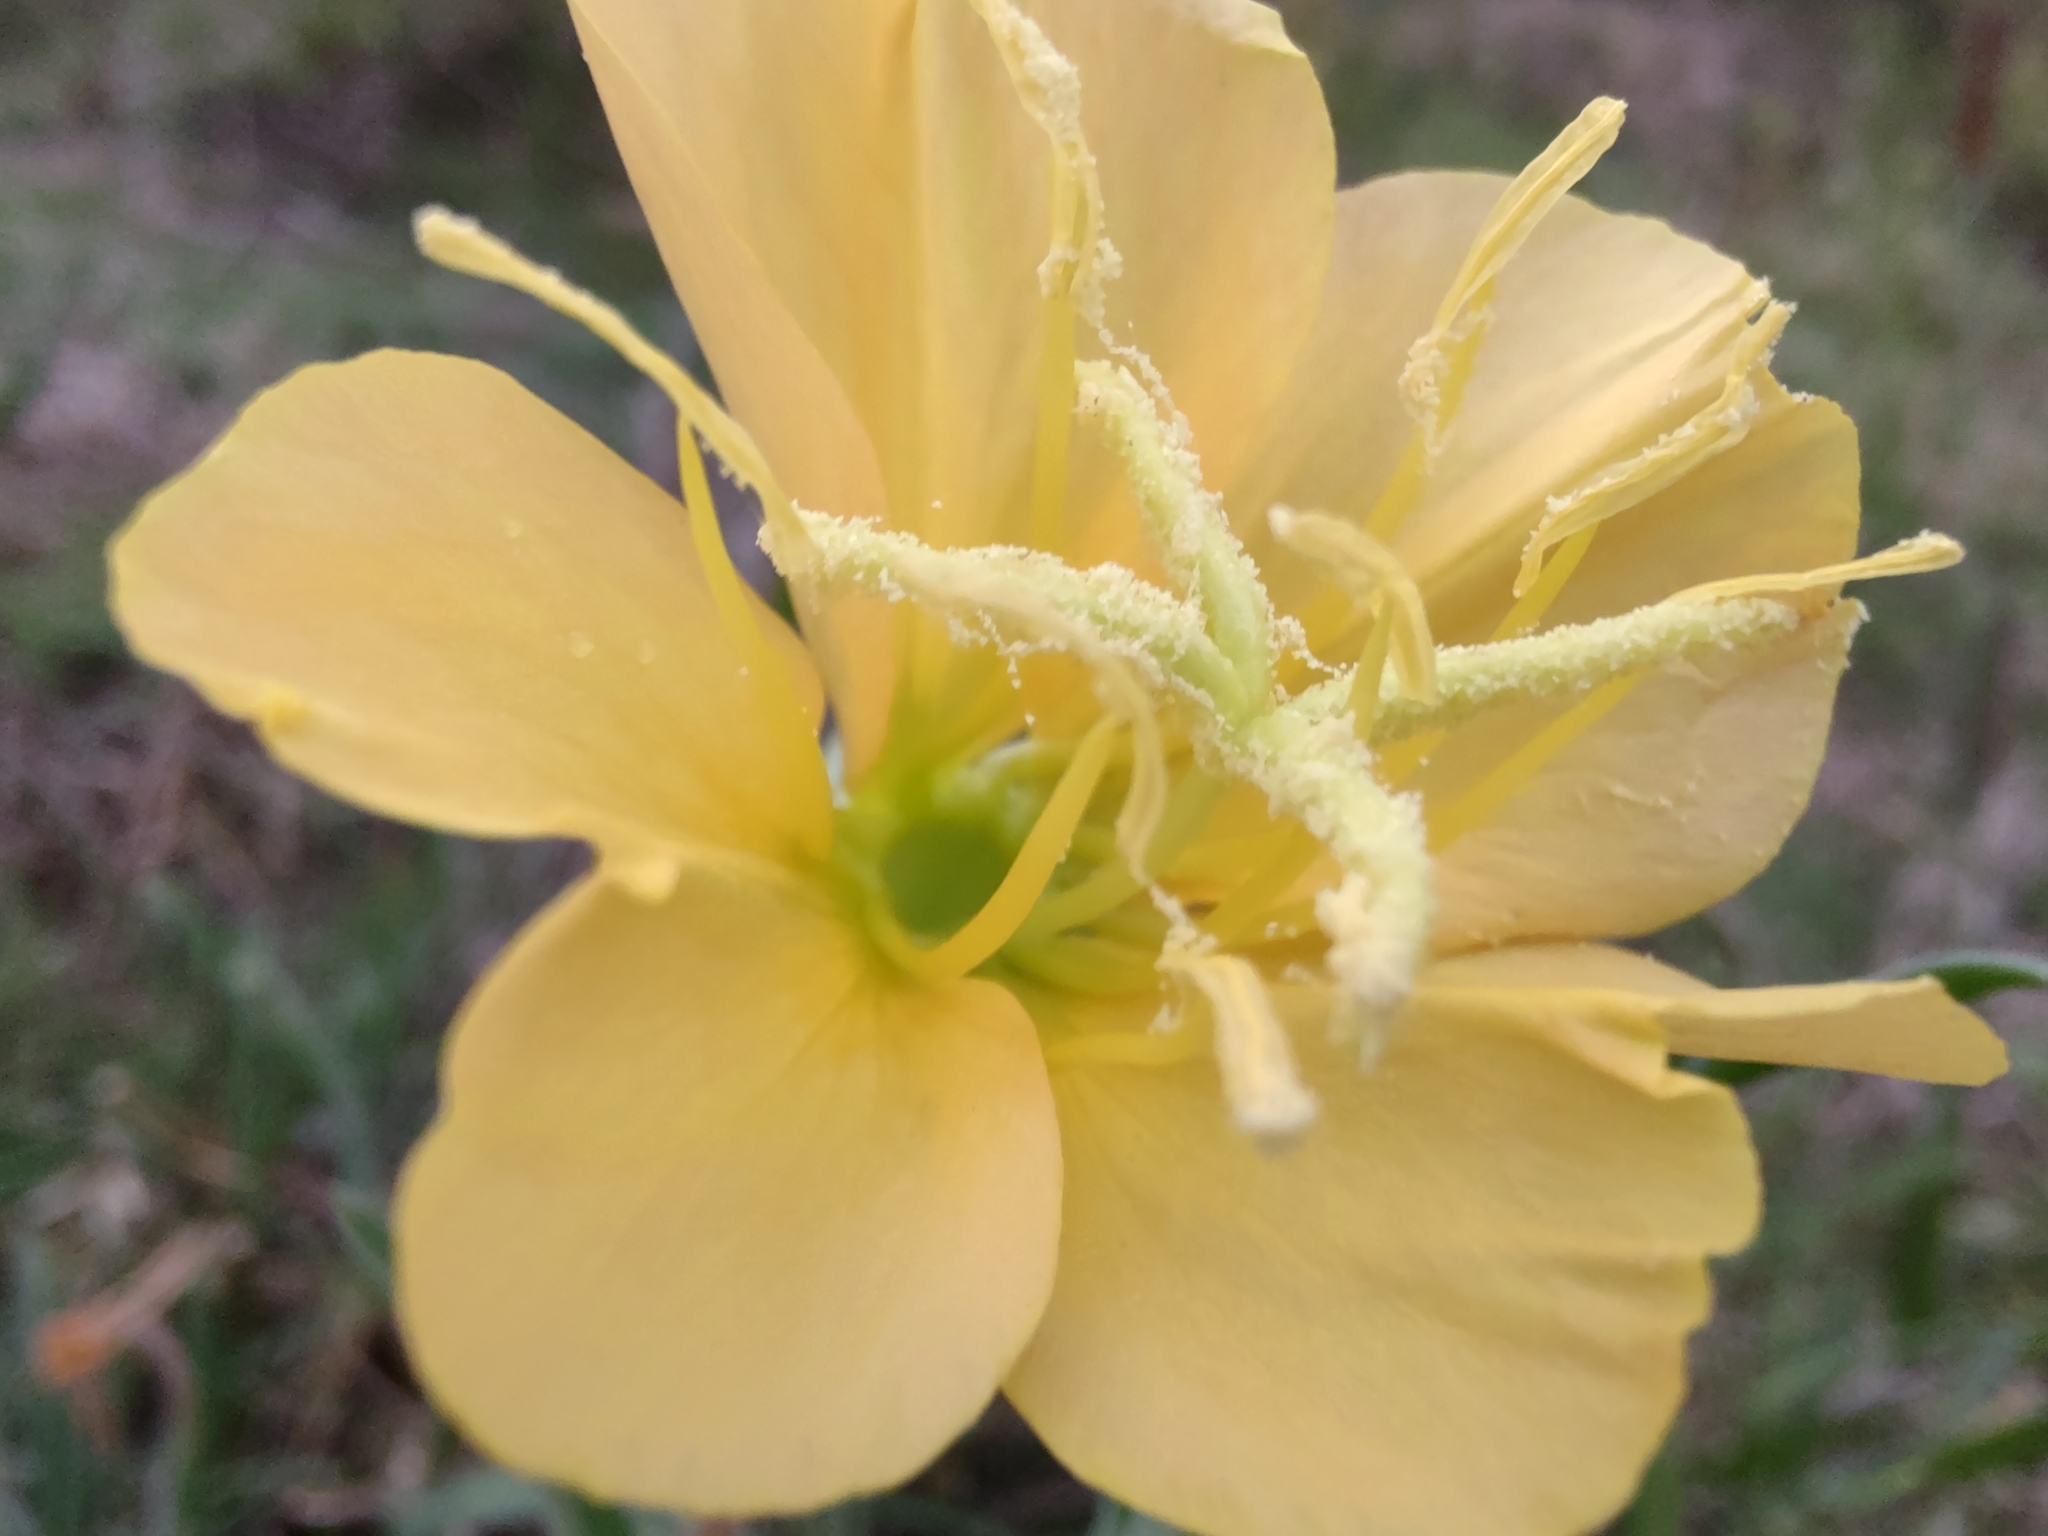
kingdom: Plantae
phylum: Tracheophyta
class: Magnoliopsida
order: Myrtales
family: Onagraceae
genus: Oenothera
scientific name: Oenothera affinis
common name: Longflower evening primrose
